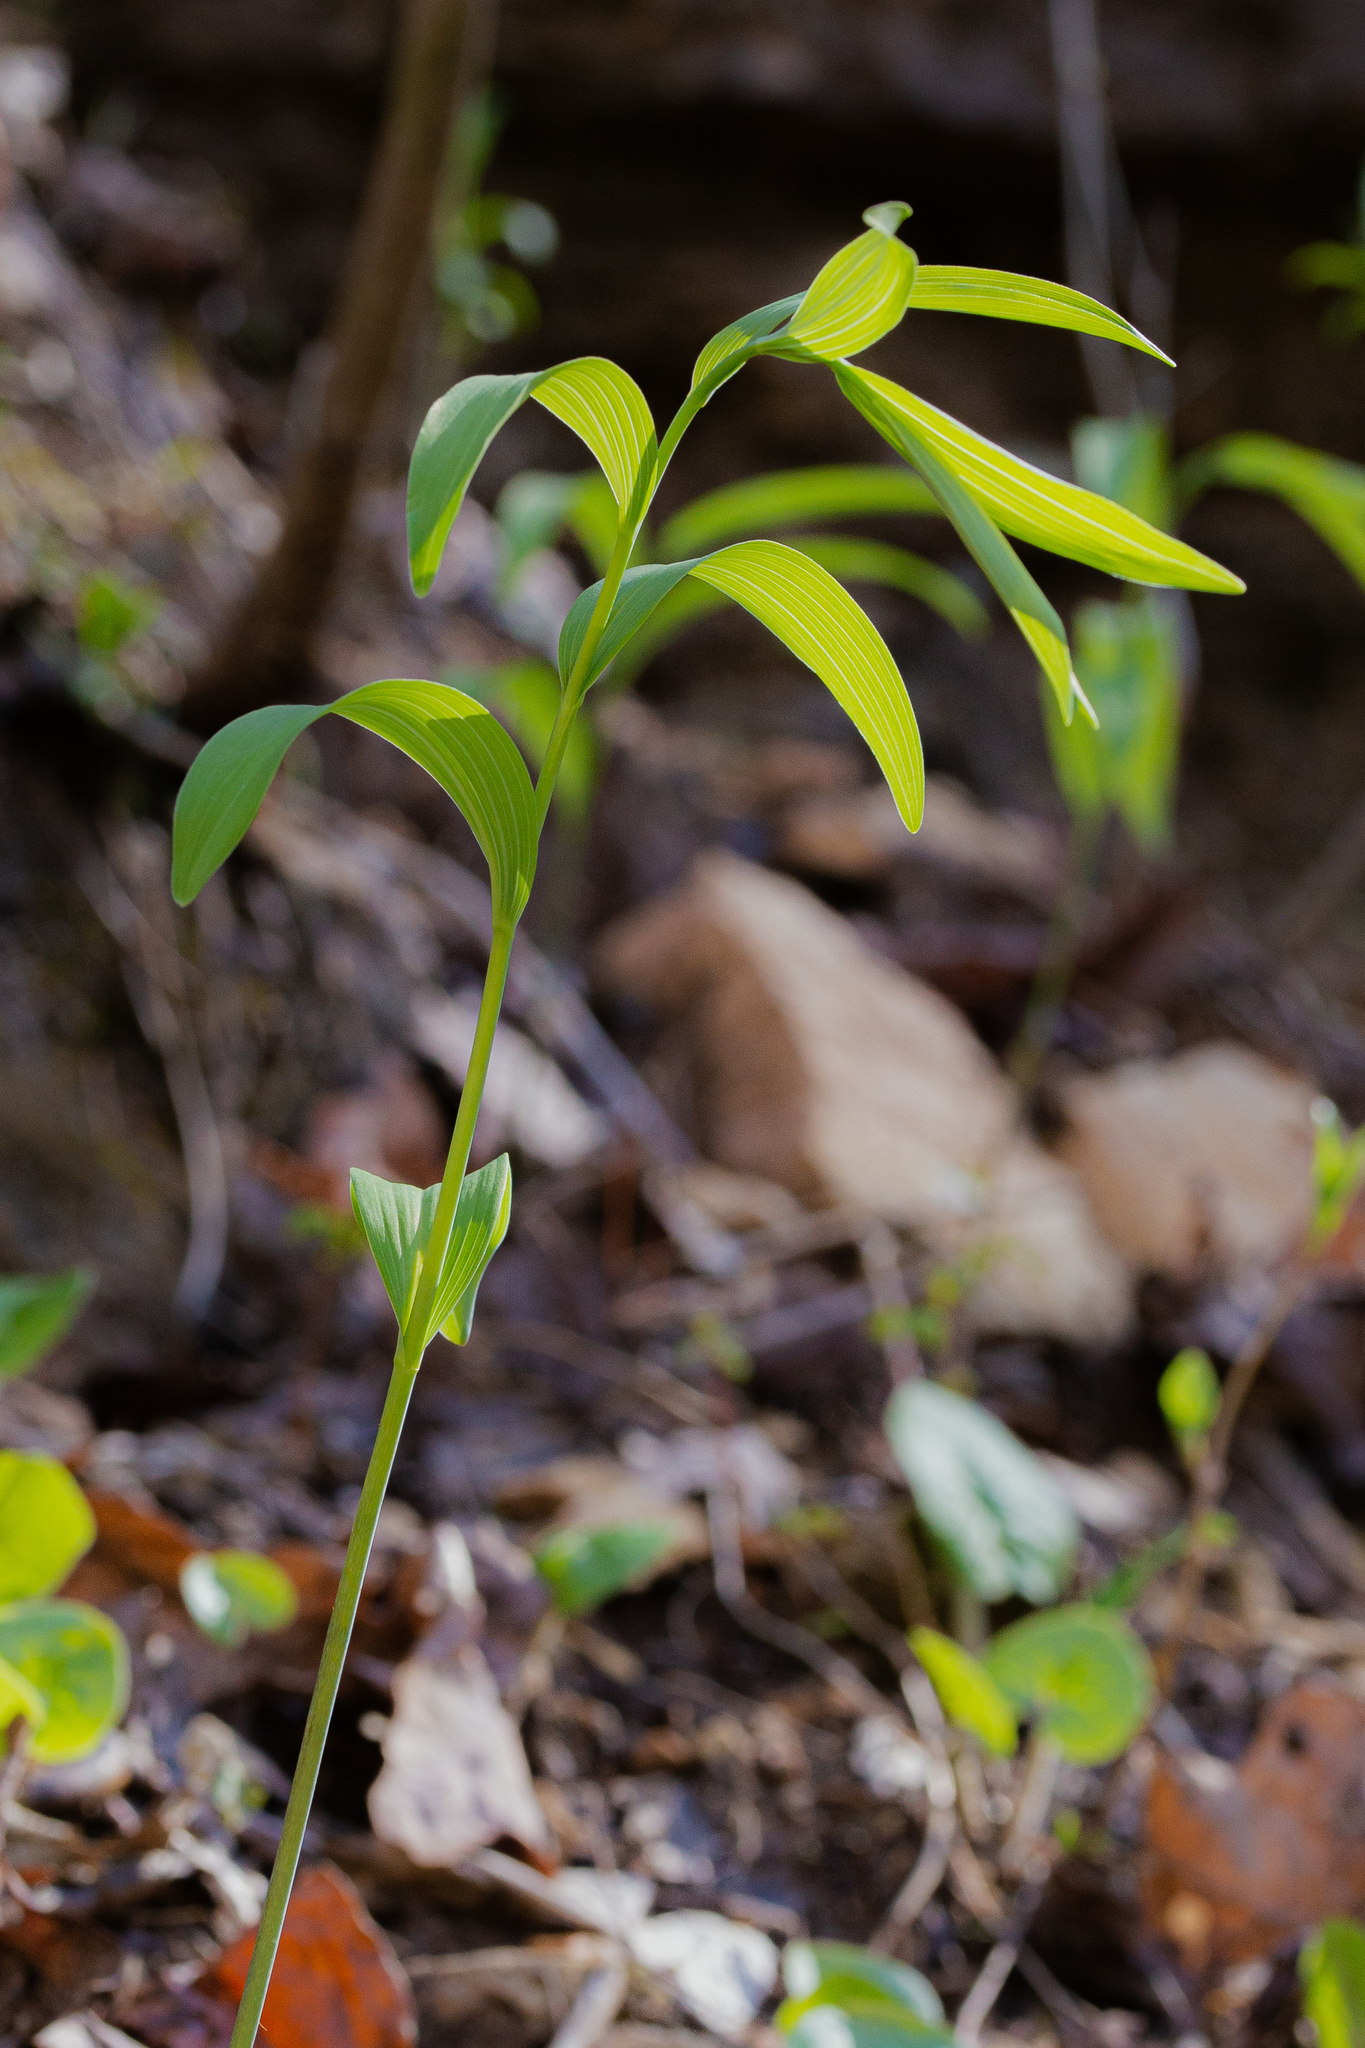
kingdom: Plantae
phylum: Tracheophyta
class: Liliopsida
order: Asparagales
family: Asparagaceae
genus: Polygonatum
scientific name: Polygonatum biflorum
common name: American solomon's-seal
